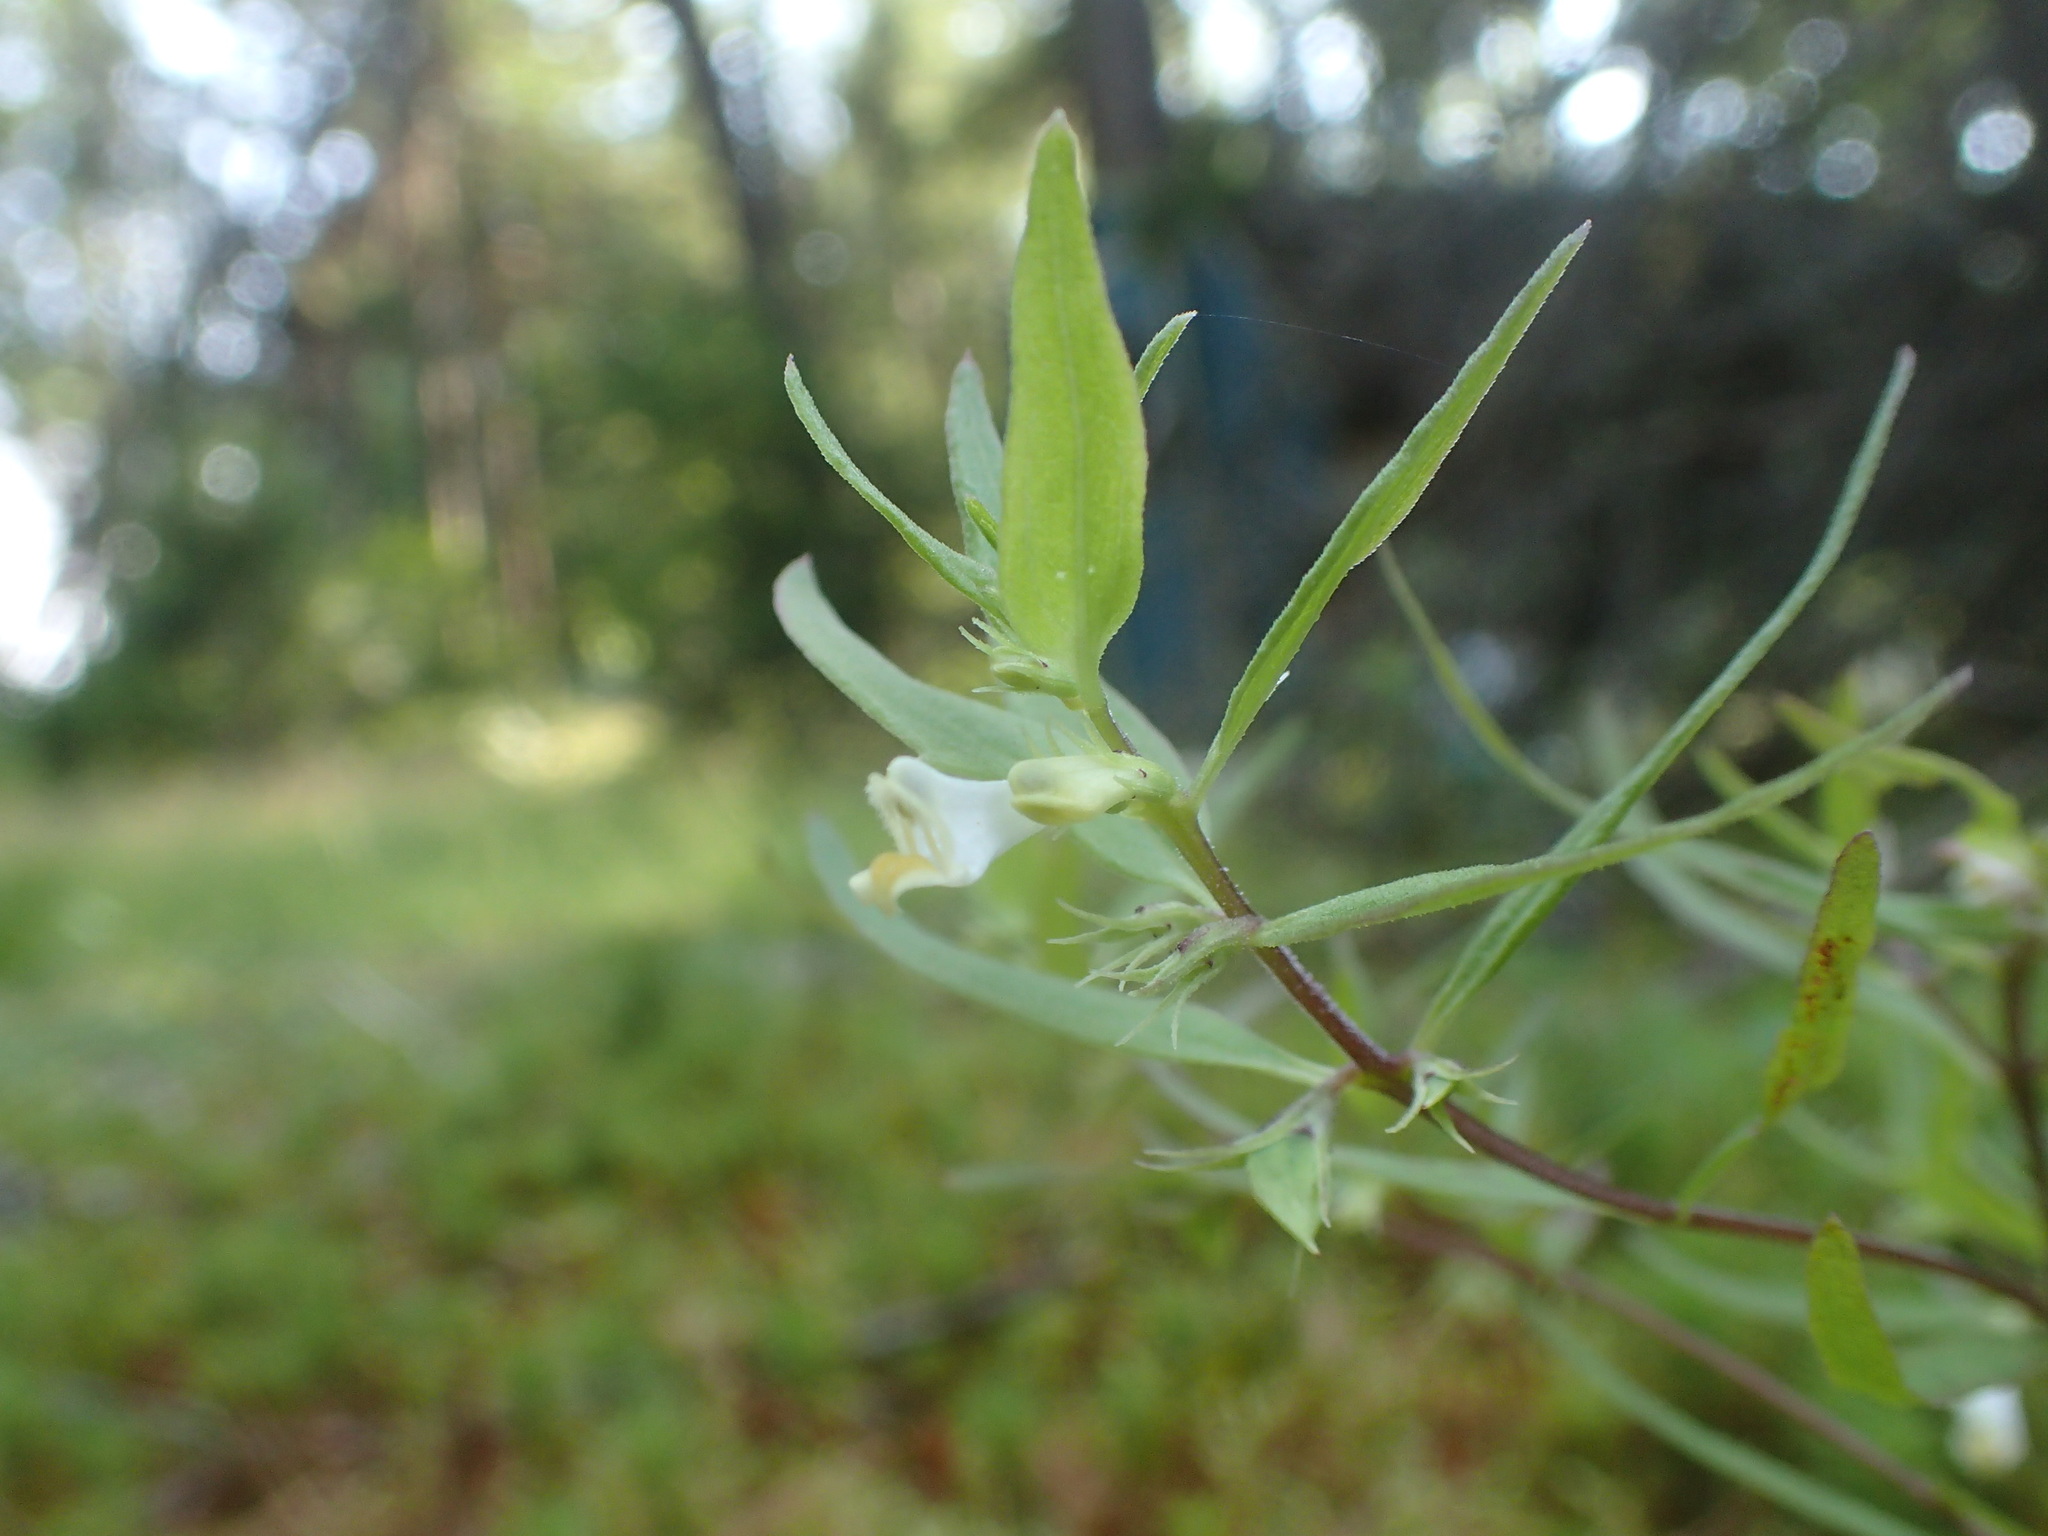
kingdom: Plantae
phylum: Tracheophyta
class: Magnoliopsida
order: Lamiales
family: Orobanchaceae
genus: Melampyrum
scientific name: Melampyrum lineare
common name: American cow-wheat
